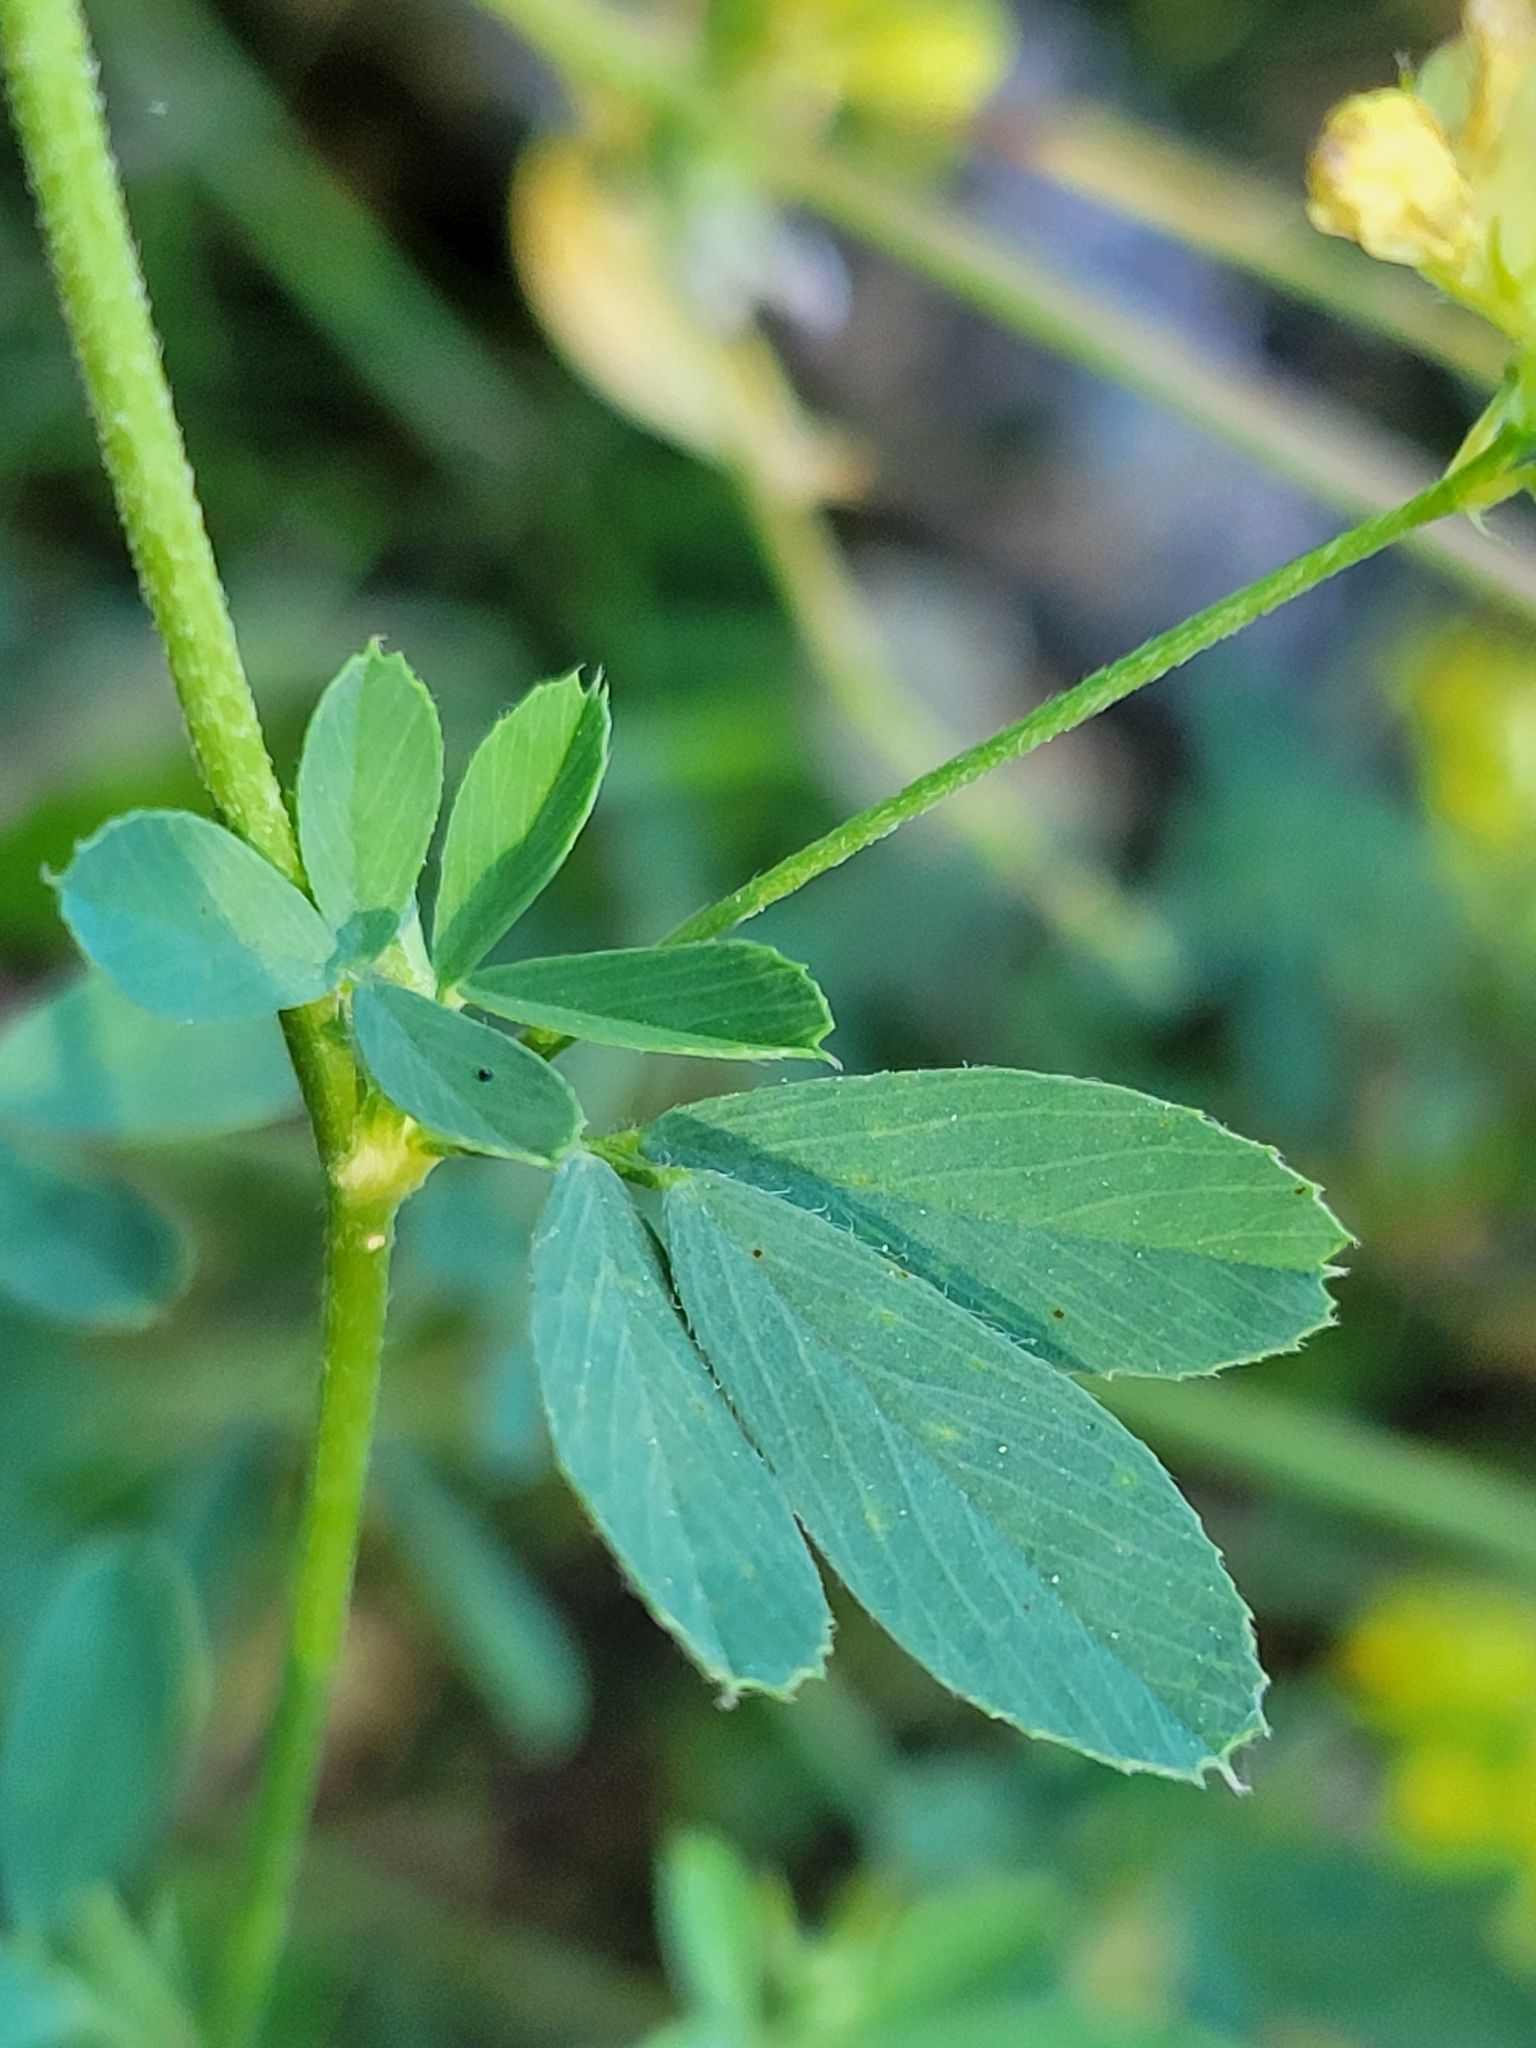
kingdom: Plantae
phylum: Tracheophyta
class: Magnoliopsida
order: Fabales
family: Fabaceae
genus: Medicago
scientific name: Medicago falcata
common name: Sickle medick
